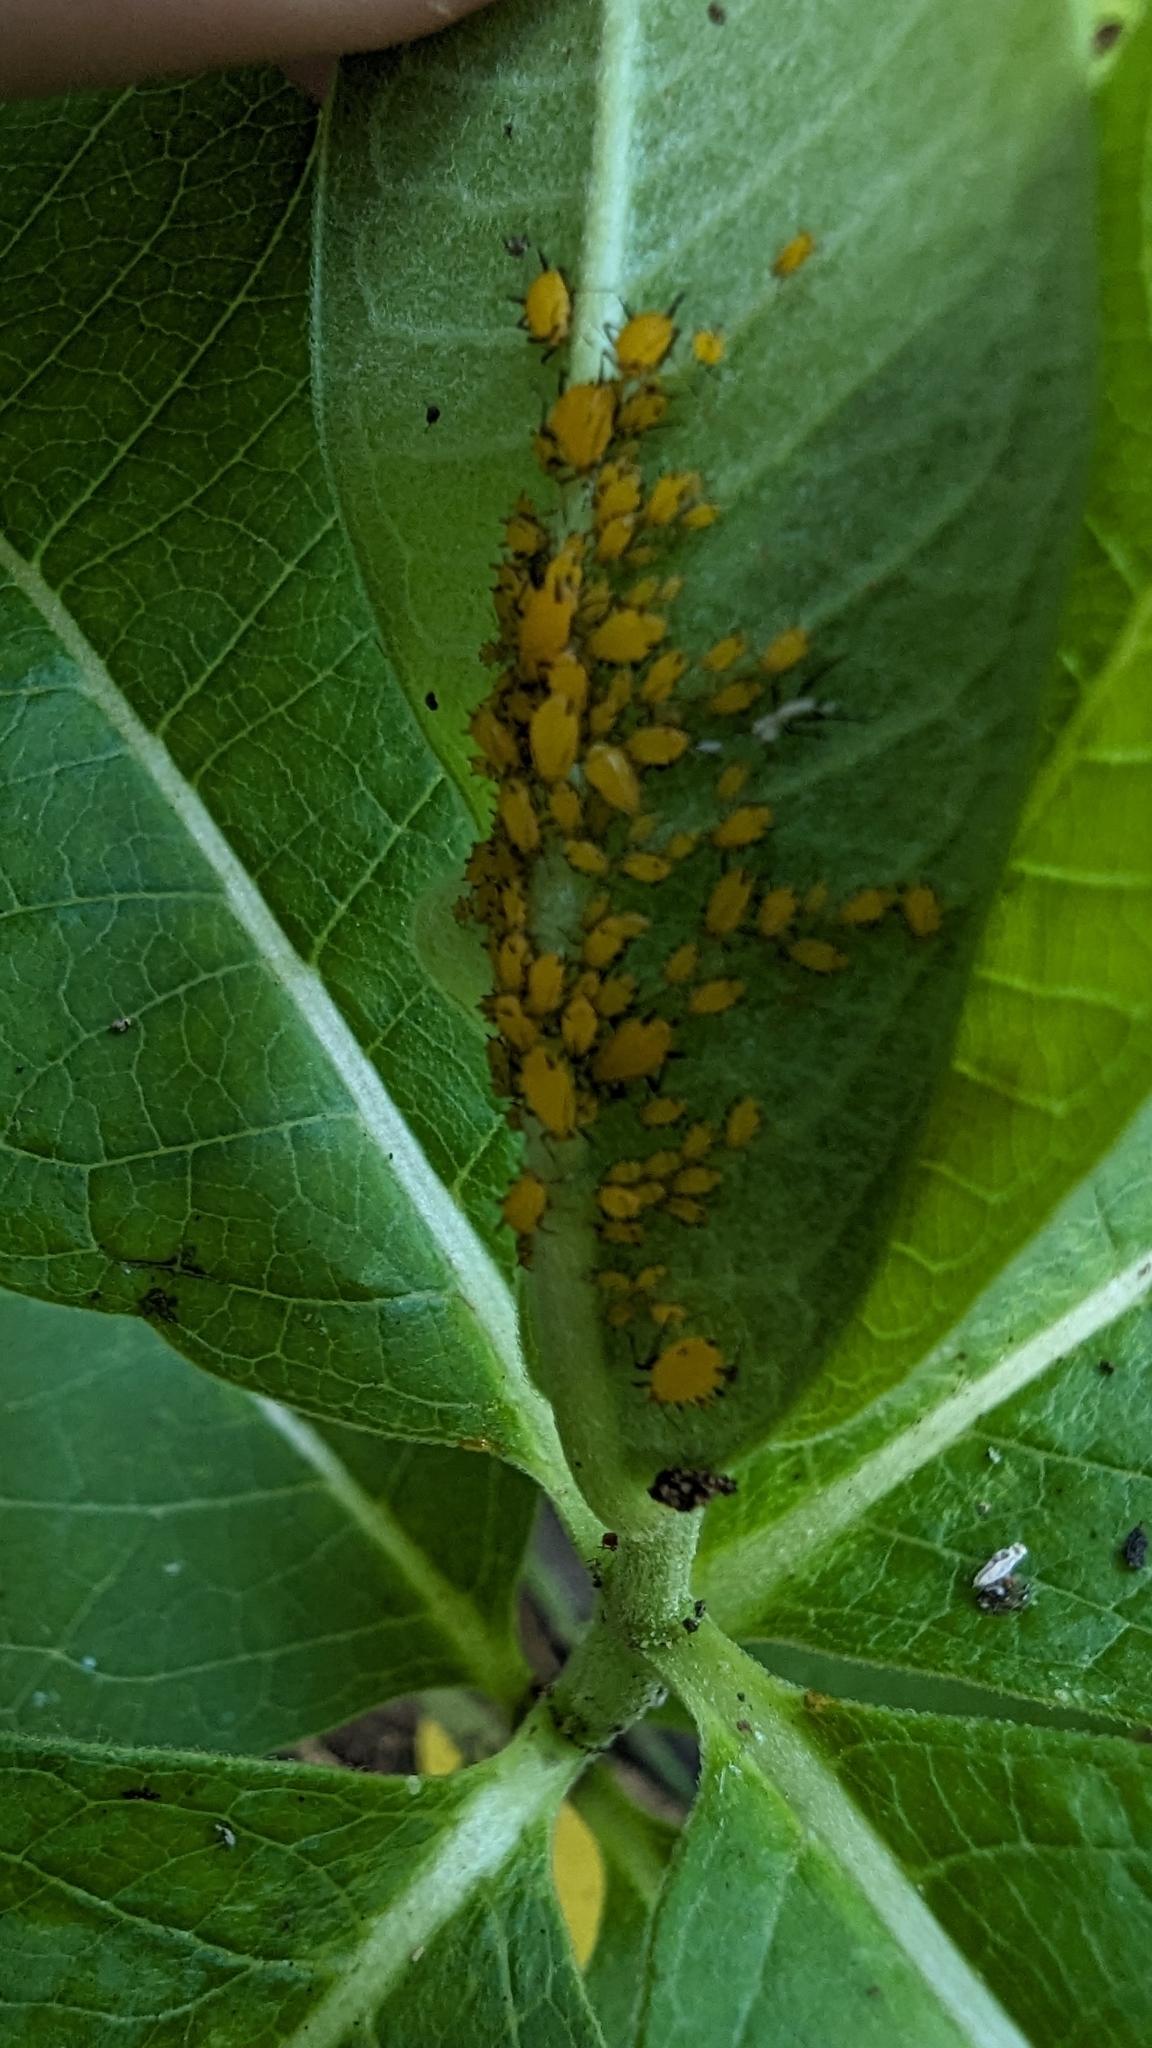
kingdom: Animalia
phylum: Arthropoda
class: Insecta
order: Hemiptera
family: Aphididae
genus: Aphis
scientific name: Aphis nerii
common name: Oleander aphid
